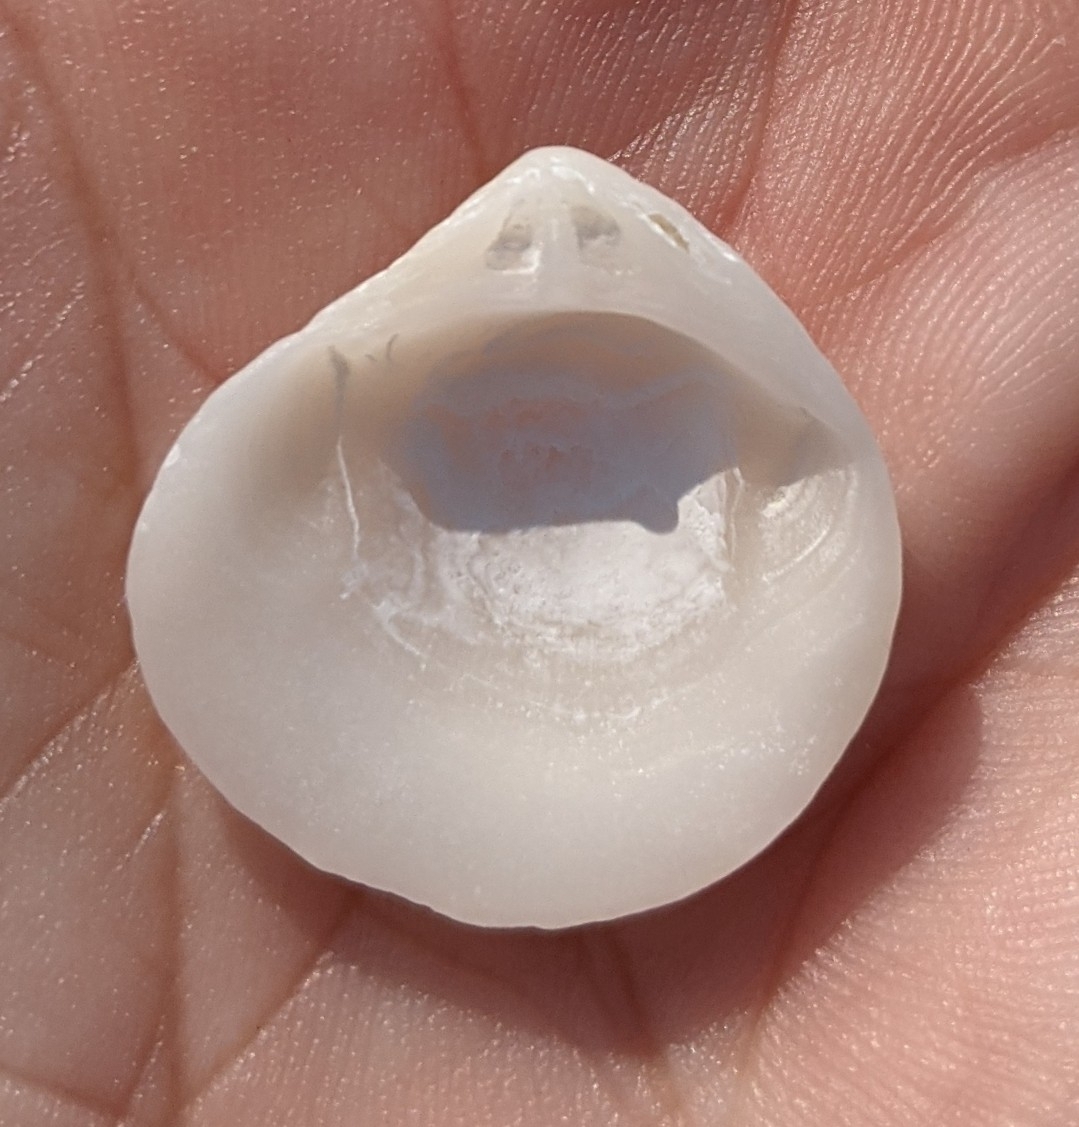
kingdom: Animalia
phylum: Mollusca
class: Bivalvia
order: Cardiida
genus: Isocrassina
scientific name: Isocrassina
